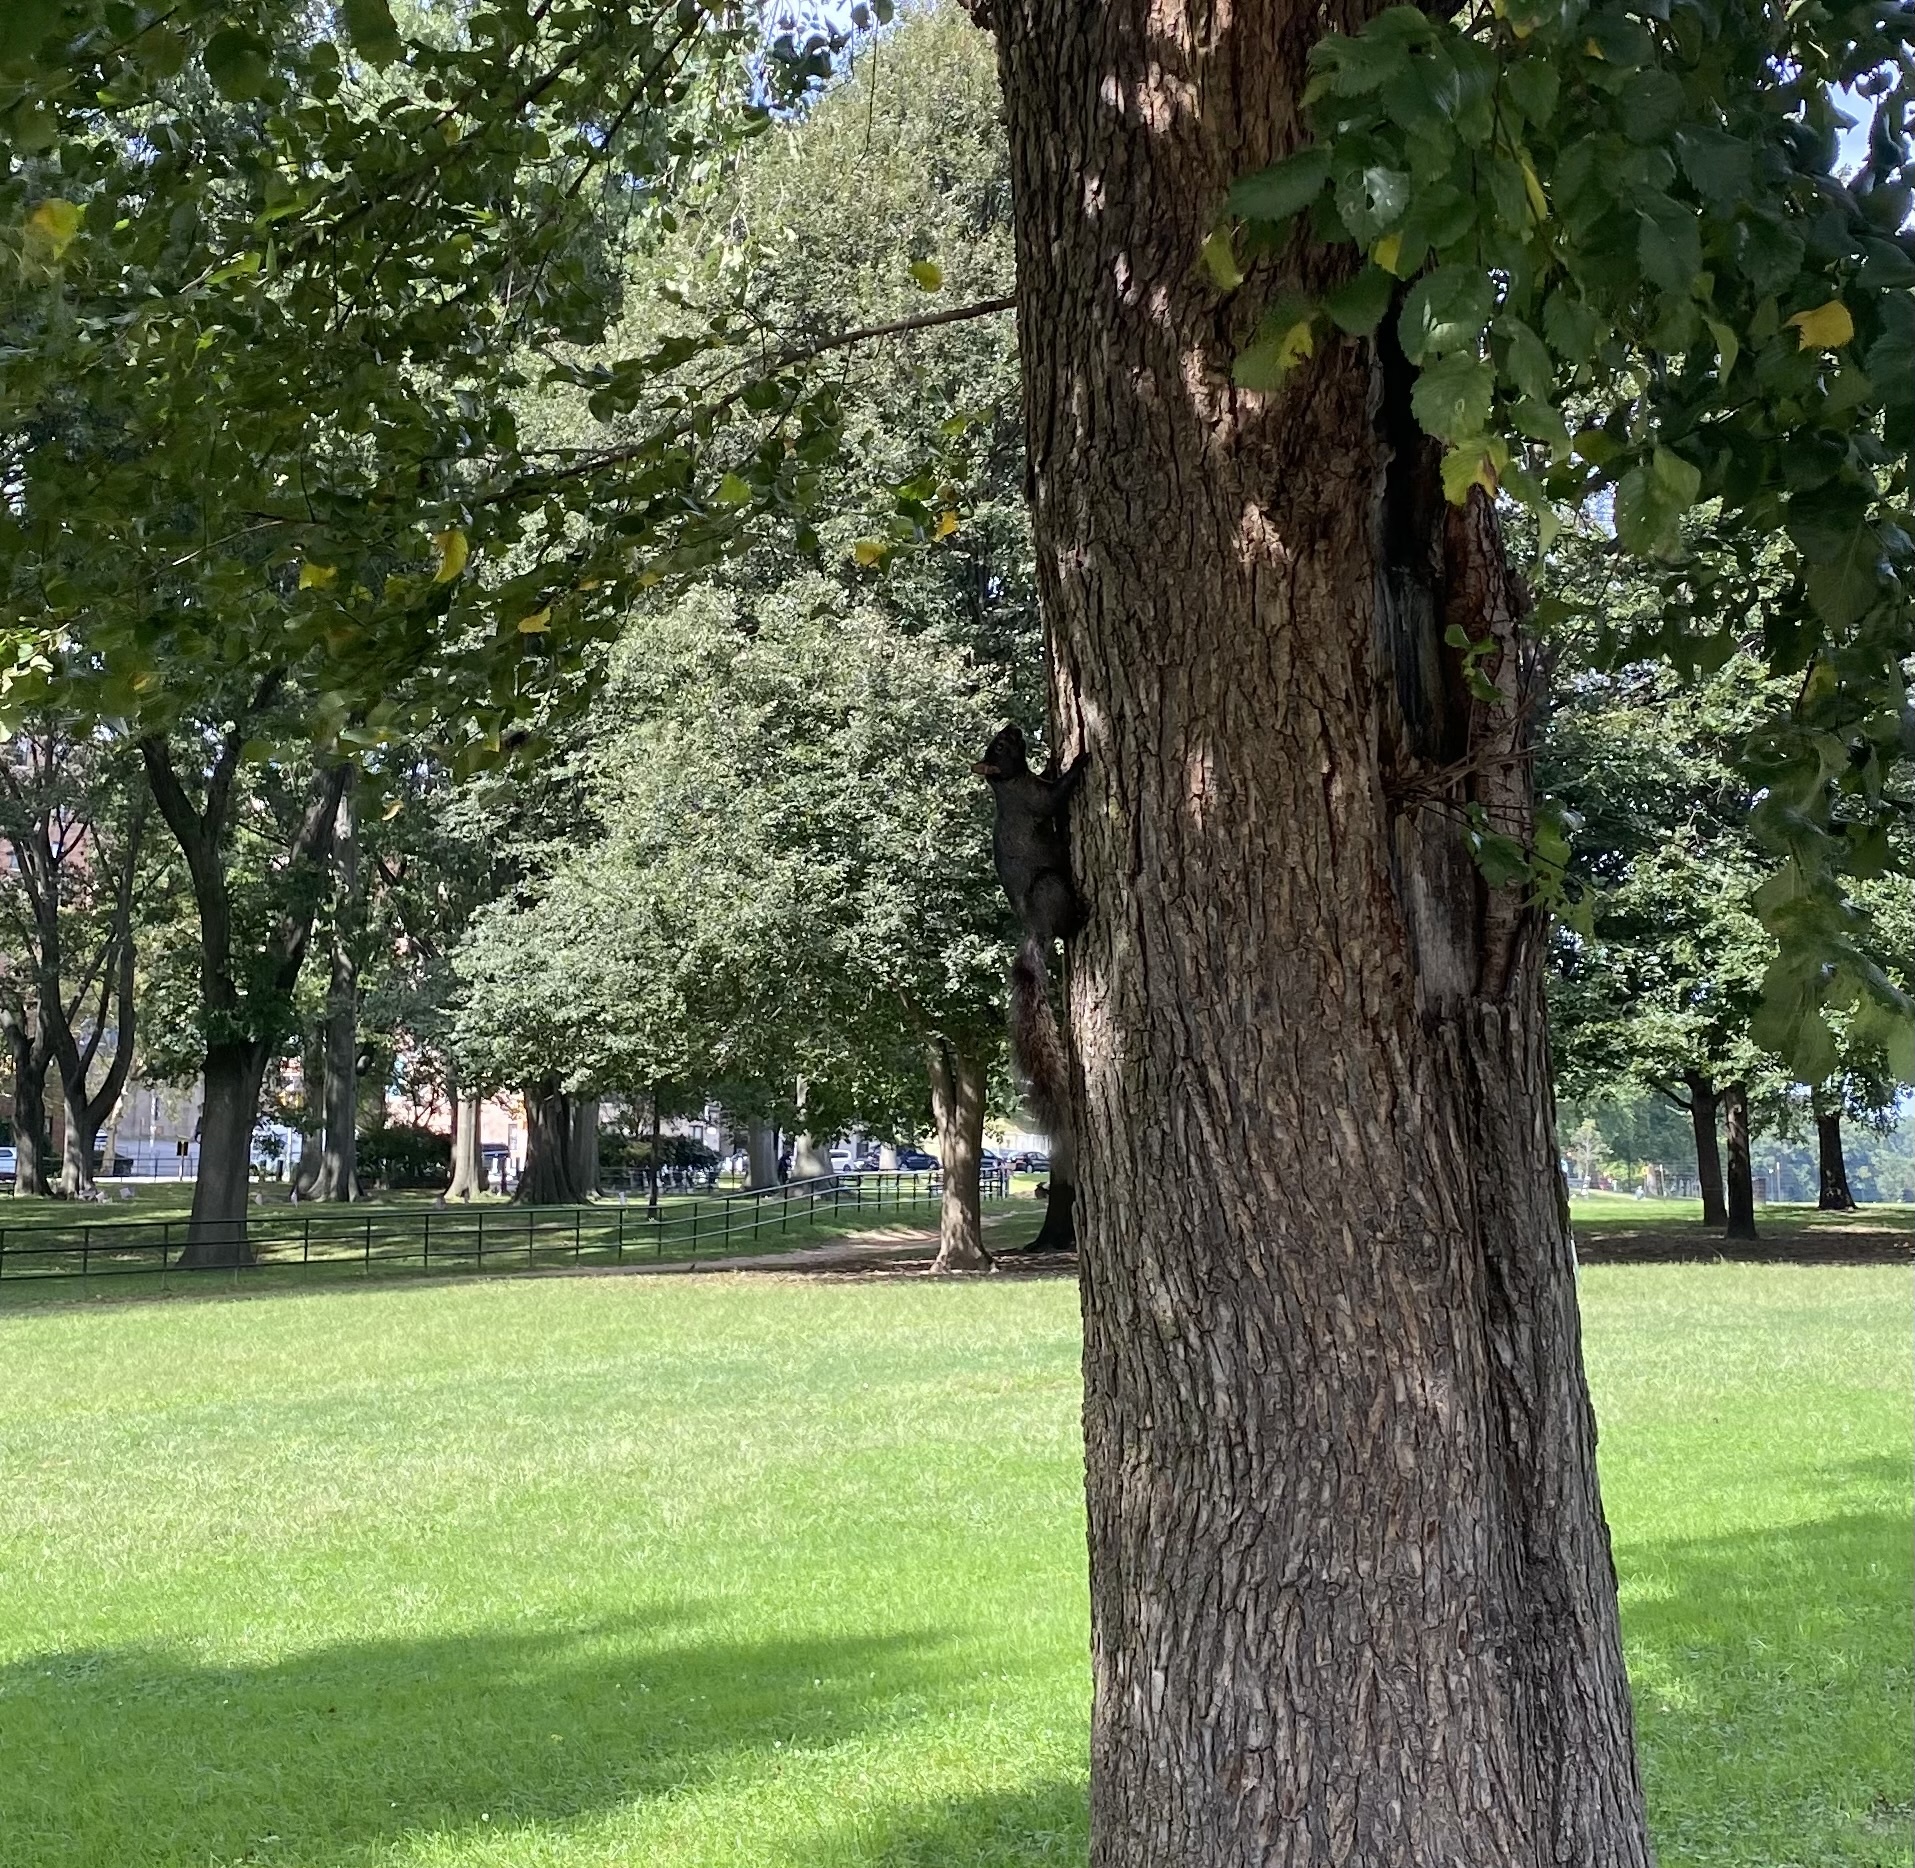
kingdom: Animalia
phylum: Chordata
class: Mammalia
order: Rodentia
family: Sciuridae
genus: Sciurus
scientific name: Sciurus carolinensis
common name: Eastern gray squirrel
